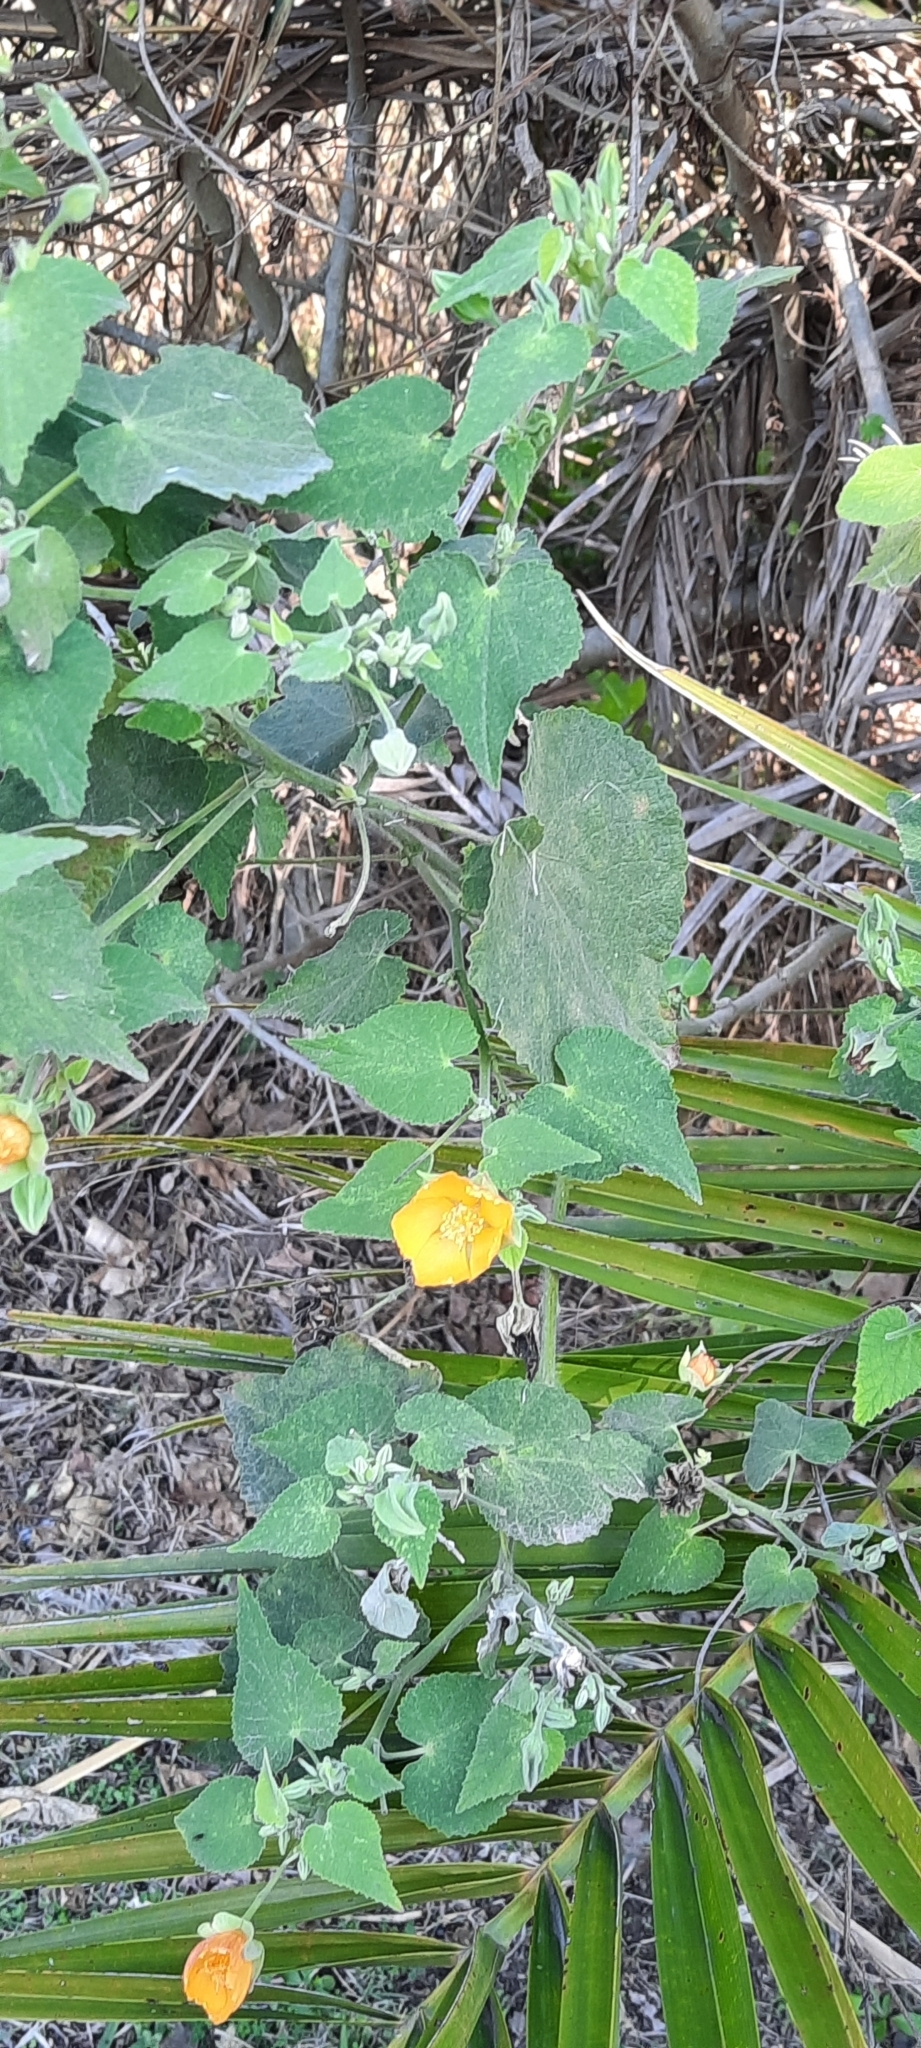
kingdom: Plantae
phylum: Tracheophyta
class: Magnoliopsida
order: Malvales
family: Malvaceae
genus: Abutilon
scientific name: Abutilon grandifolium
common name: Hairy abutilon
